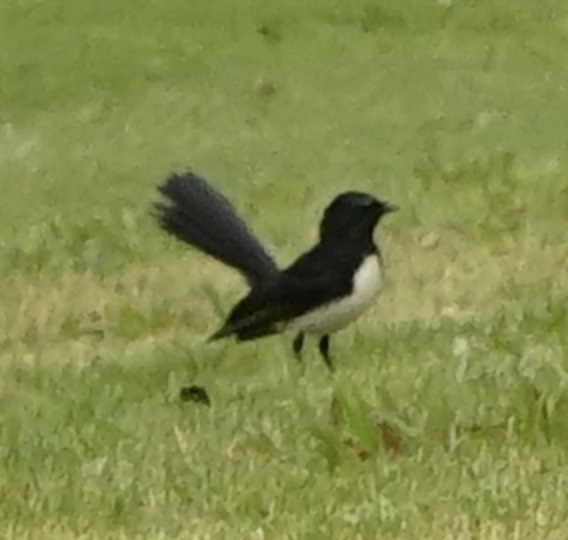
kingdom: Animalia
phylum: Chordata
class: Aves
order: Passeriformes
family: Rhipiduridae
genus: Rhipidura
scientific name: Rhipidura leucophrys
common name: Willie wagtail
